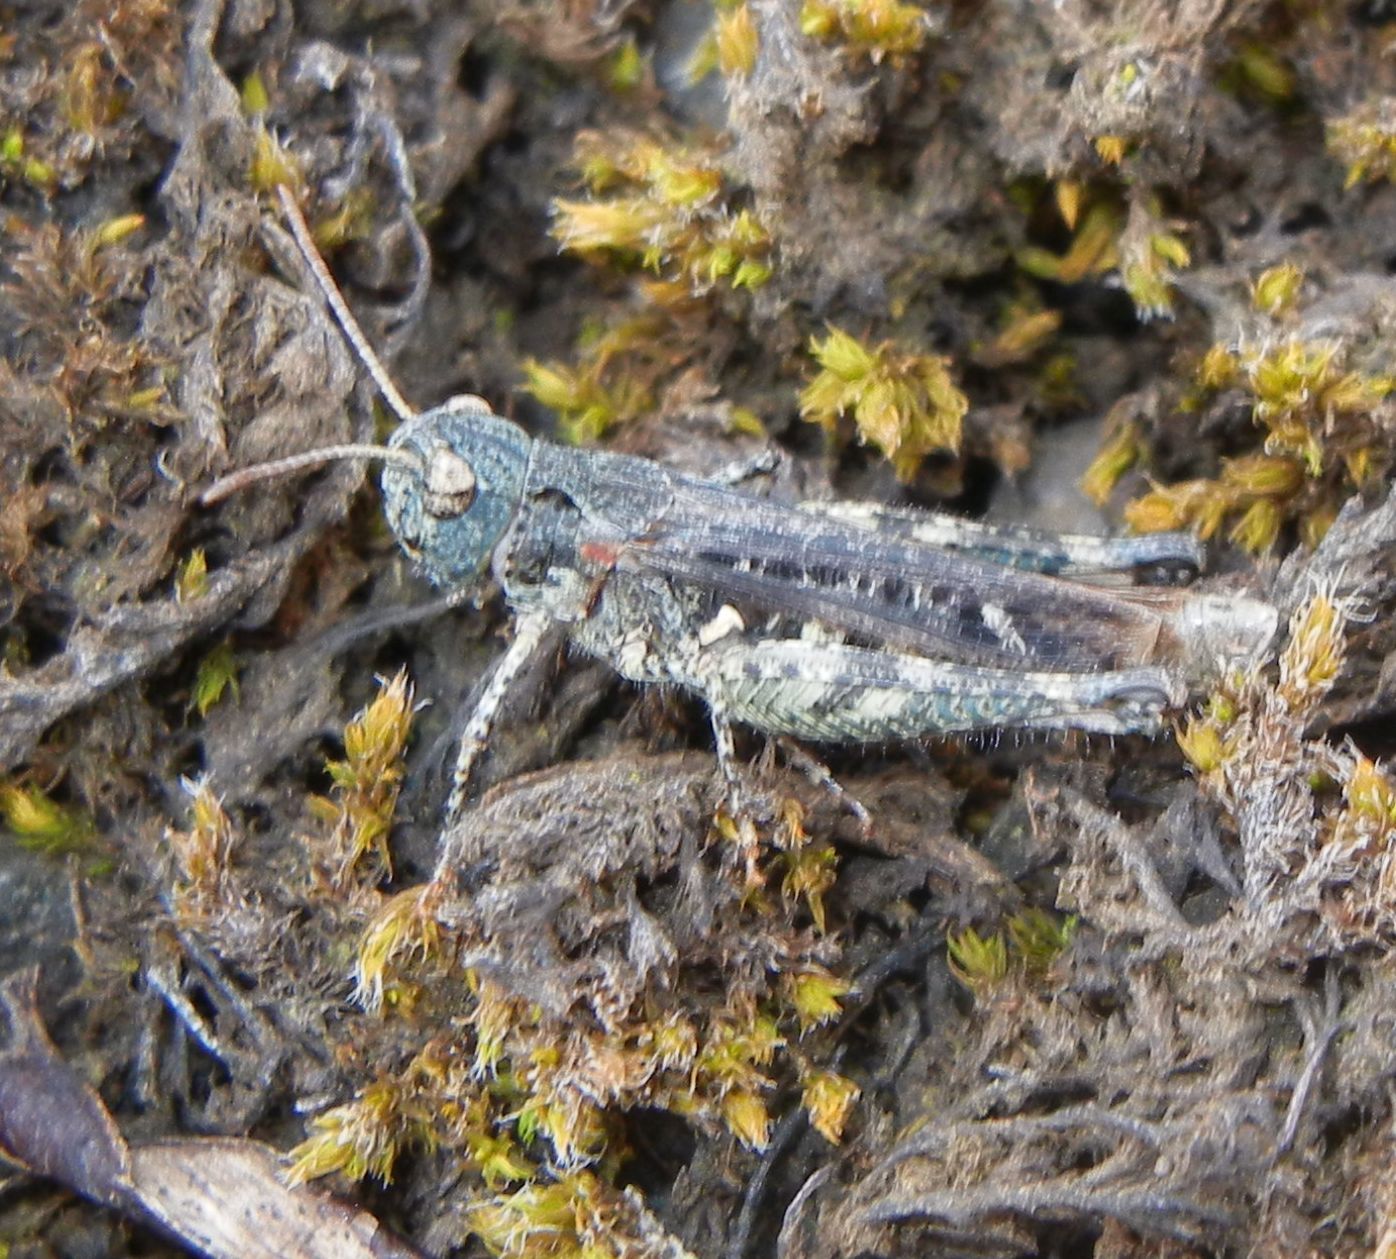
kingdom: Animalia
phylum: Arthropoda
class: Insecta
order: Orthoptera
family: Acrididae
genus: Myrmeleotettix
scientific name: Myrmeleotettix maculatus
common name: Mottled grasshopper
